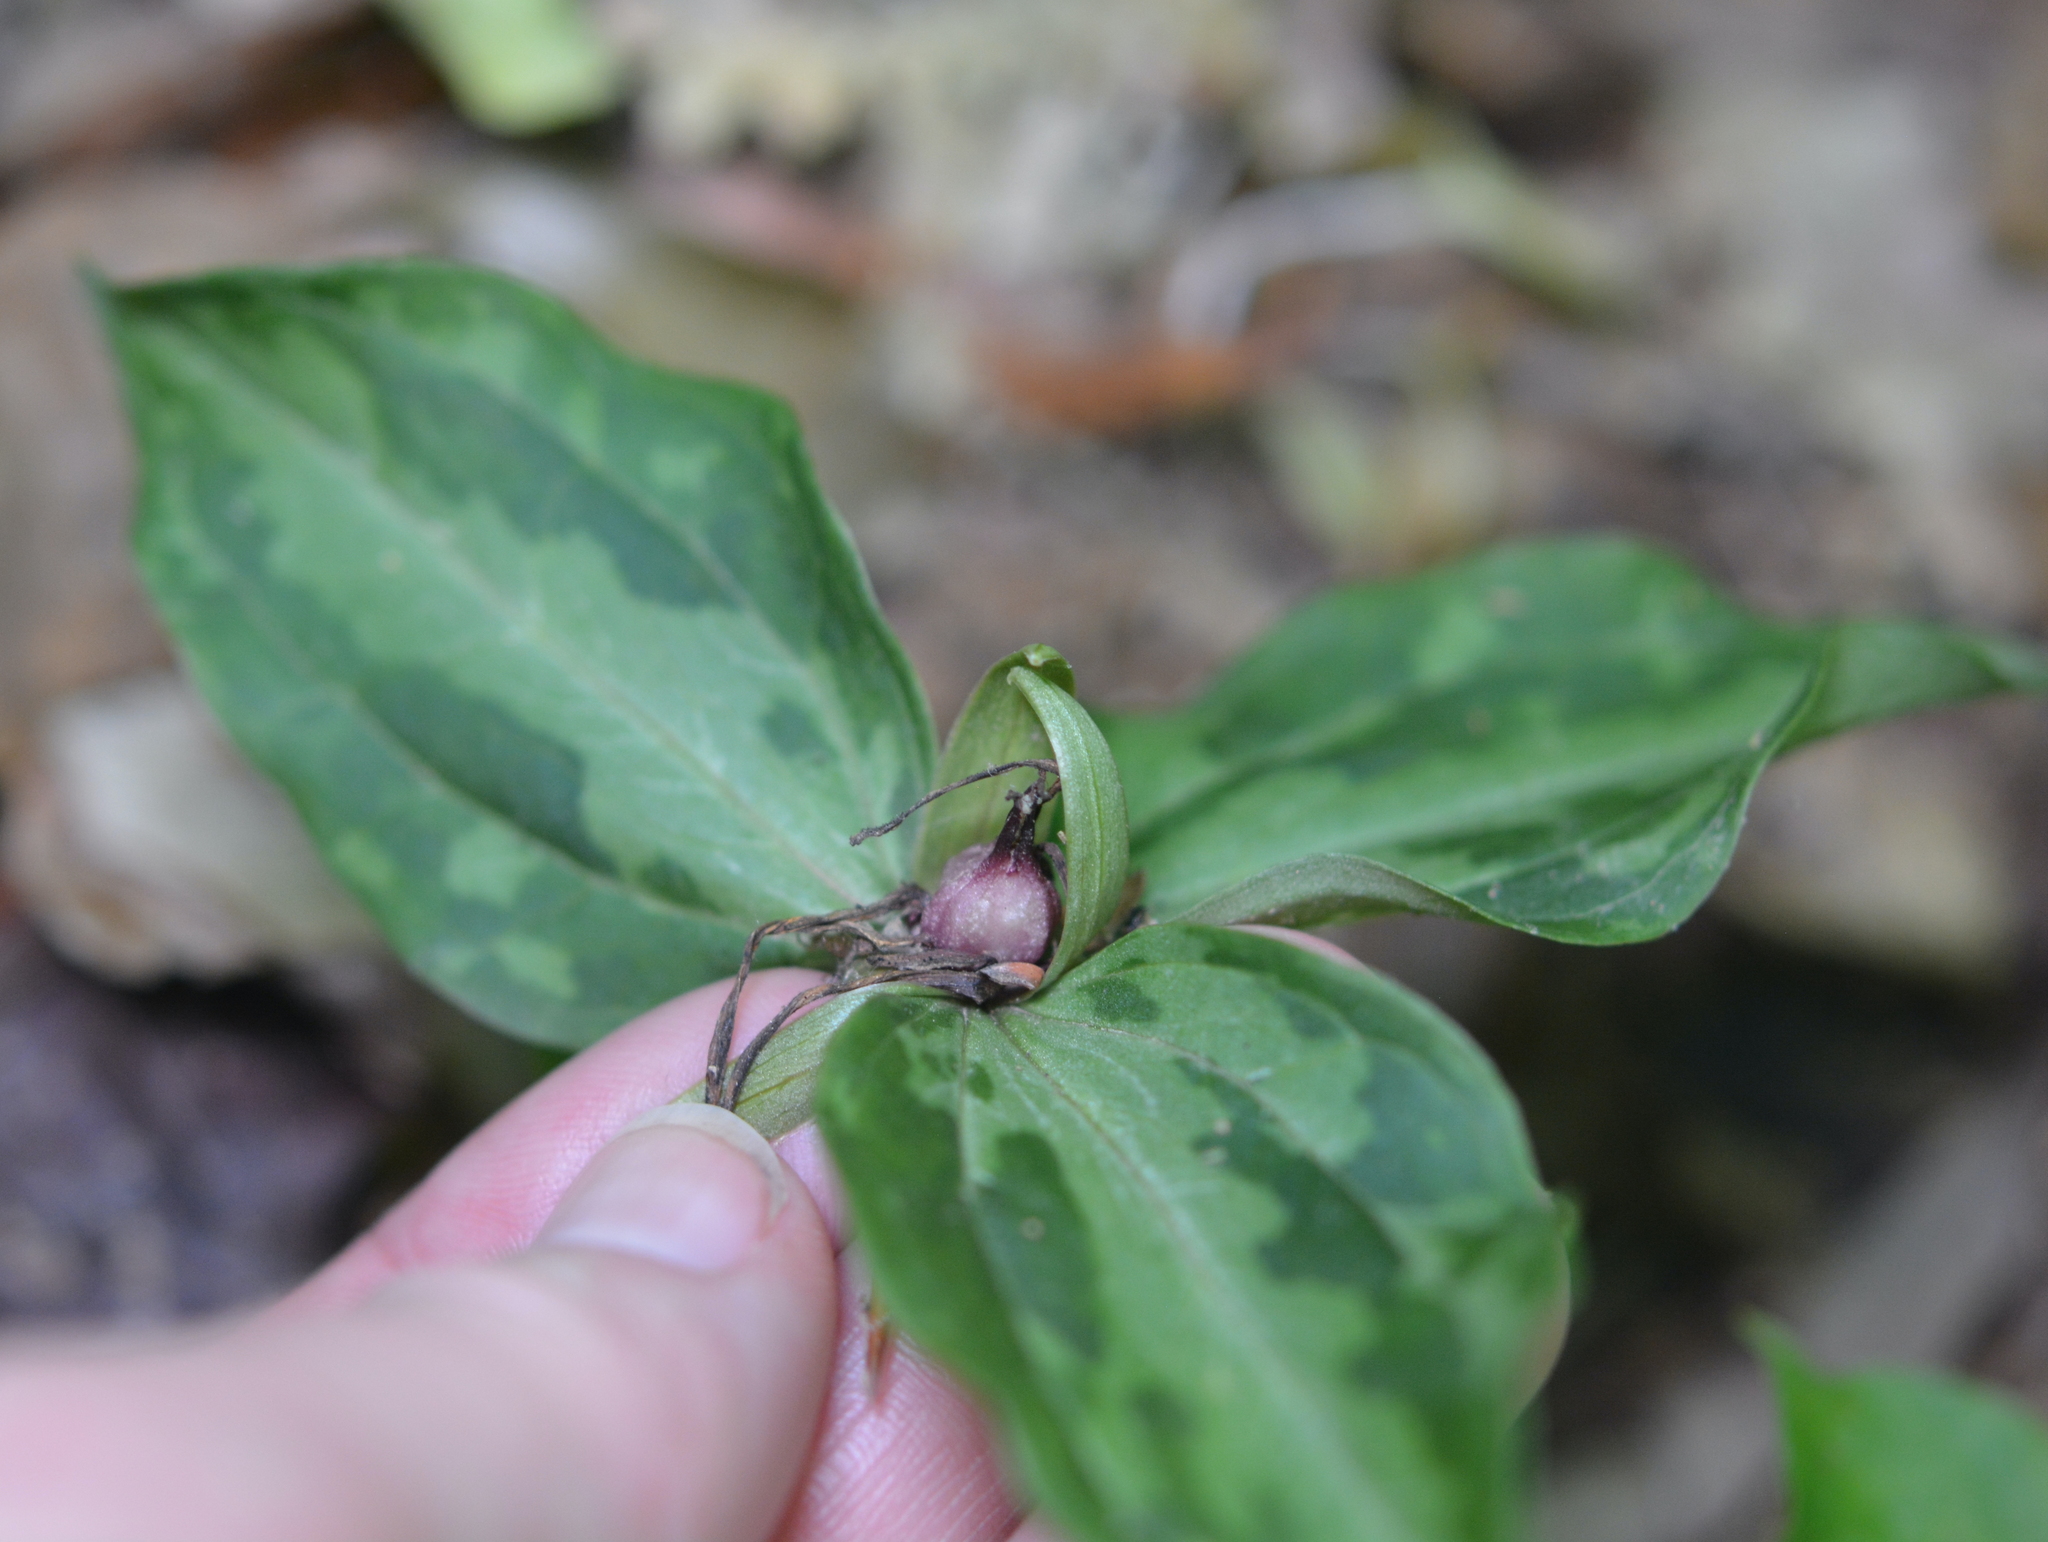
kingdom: Plantae
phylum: Tracheophyta
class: Liliopsida
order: Liliales
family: Melanthiaceae
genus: Trillium
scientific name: Trillium foetidissimum
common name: Mississippi river trillium
